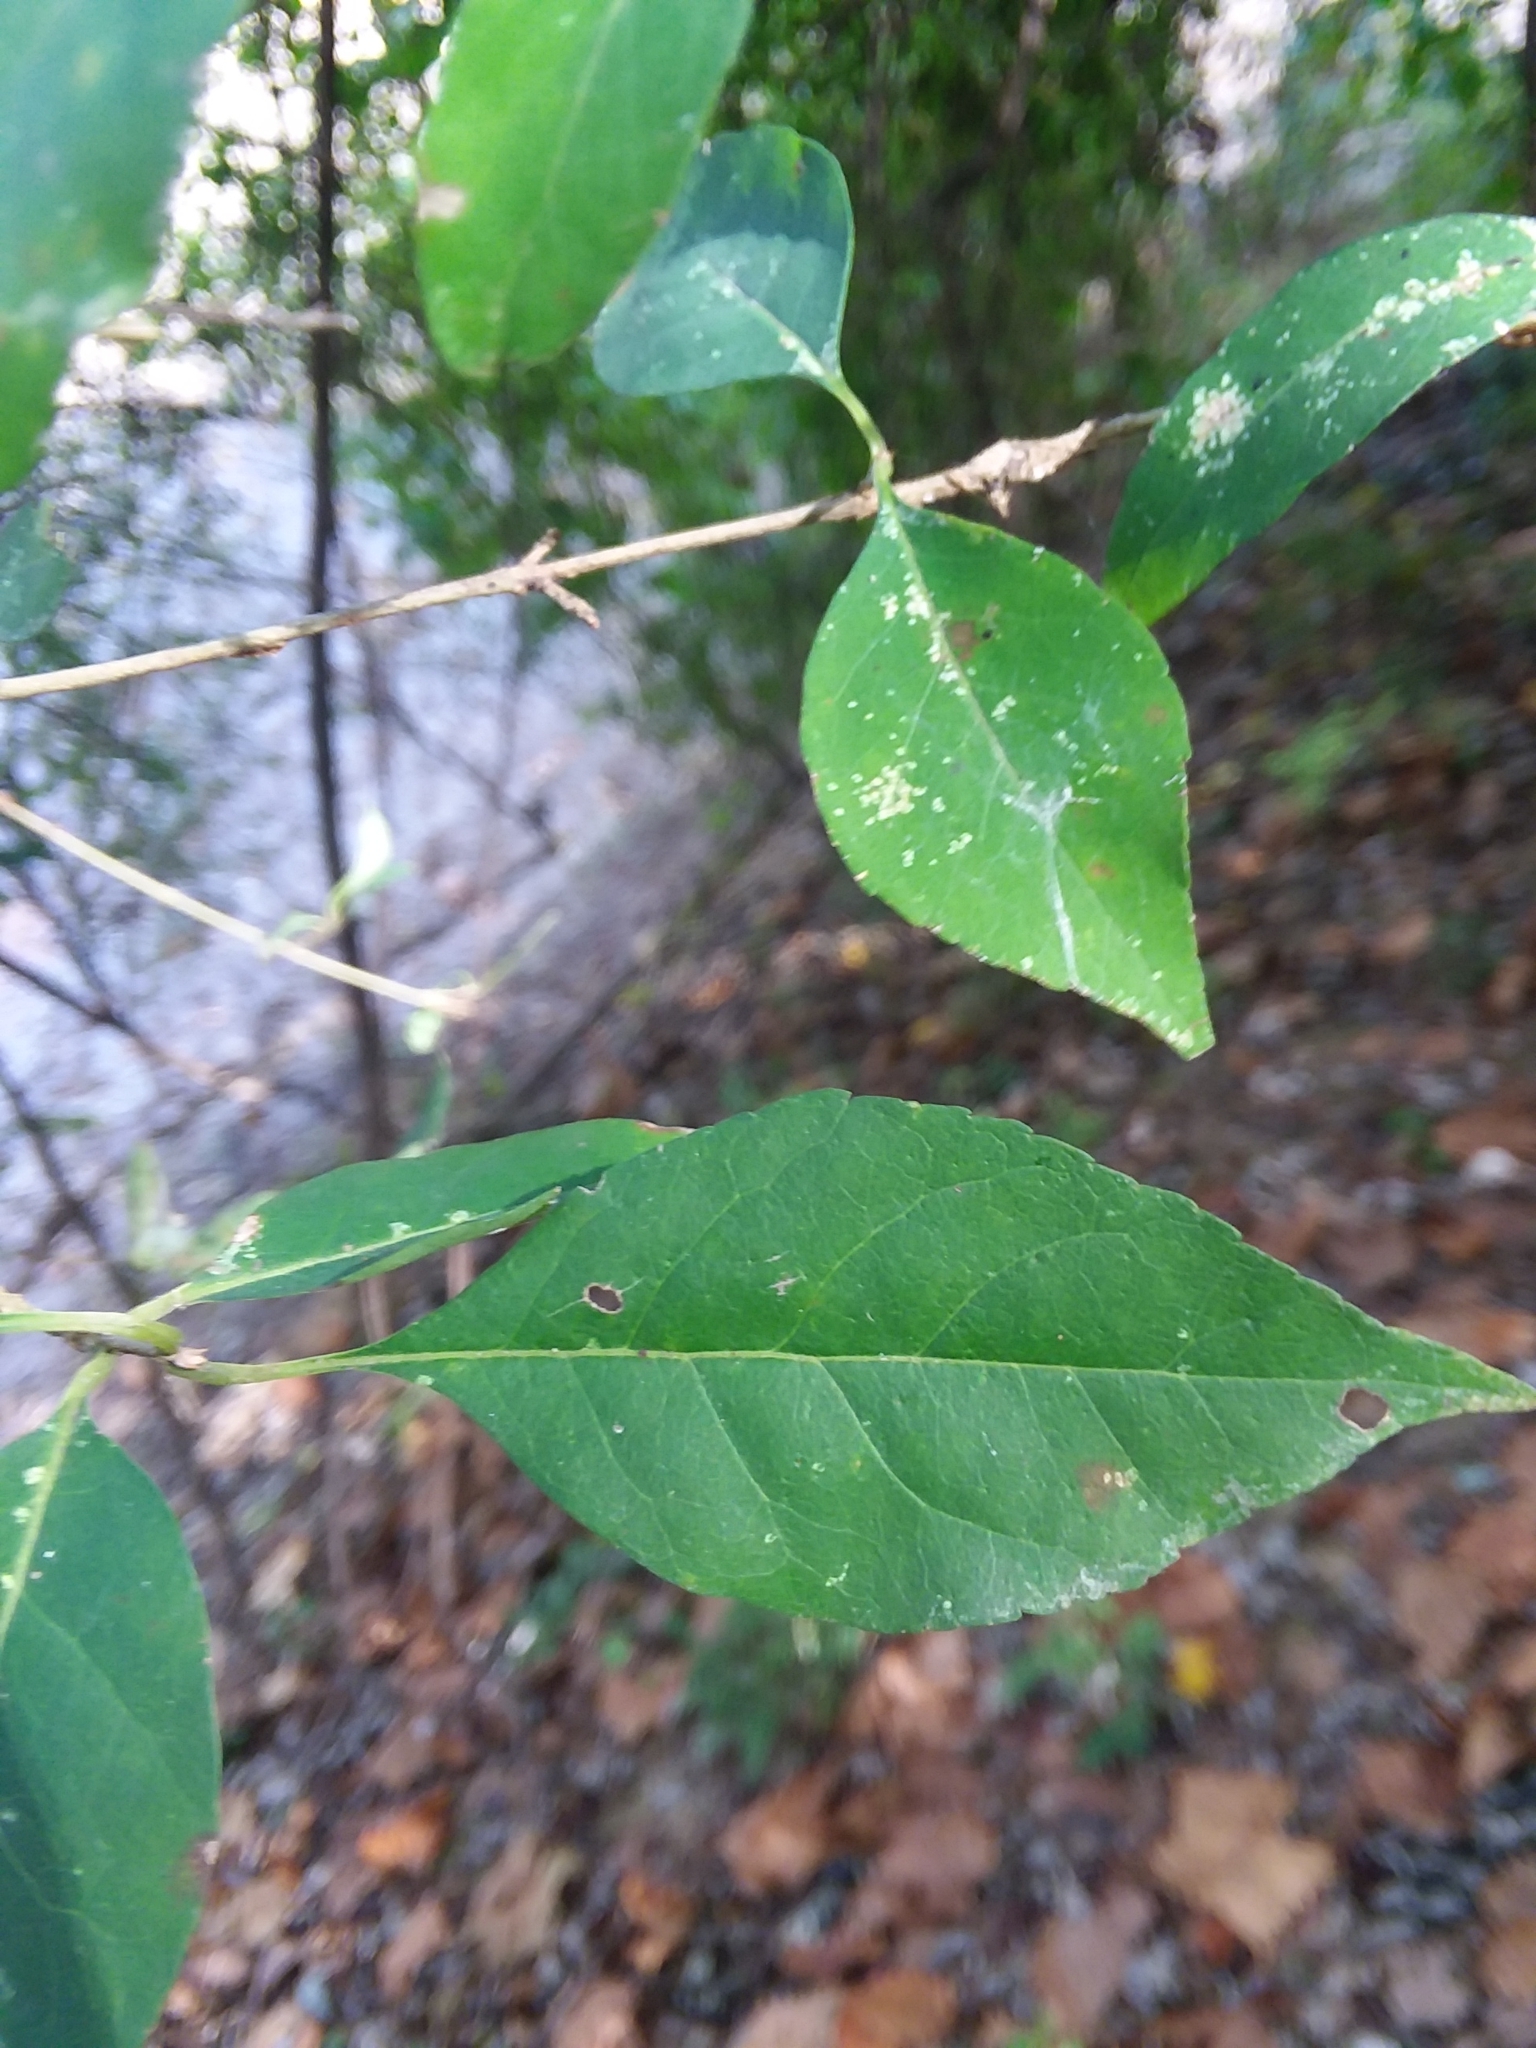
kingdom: Plantae
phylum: Tracheophyta
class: Magnoliopsida
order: Lamiales
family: Oleaceae
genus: Forestiera
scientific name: Forestiera acuminata
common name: Swamp-privet
